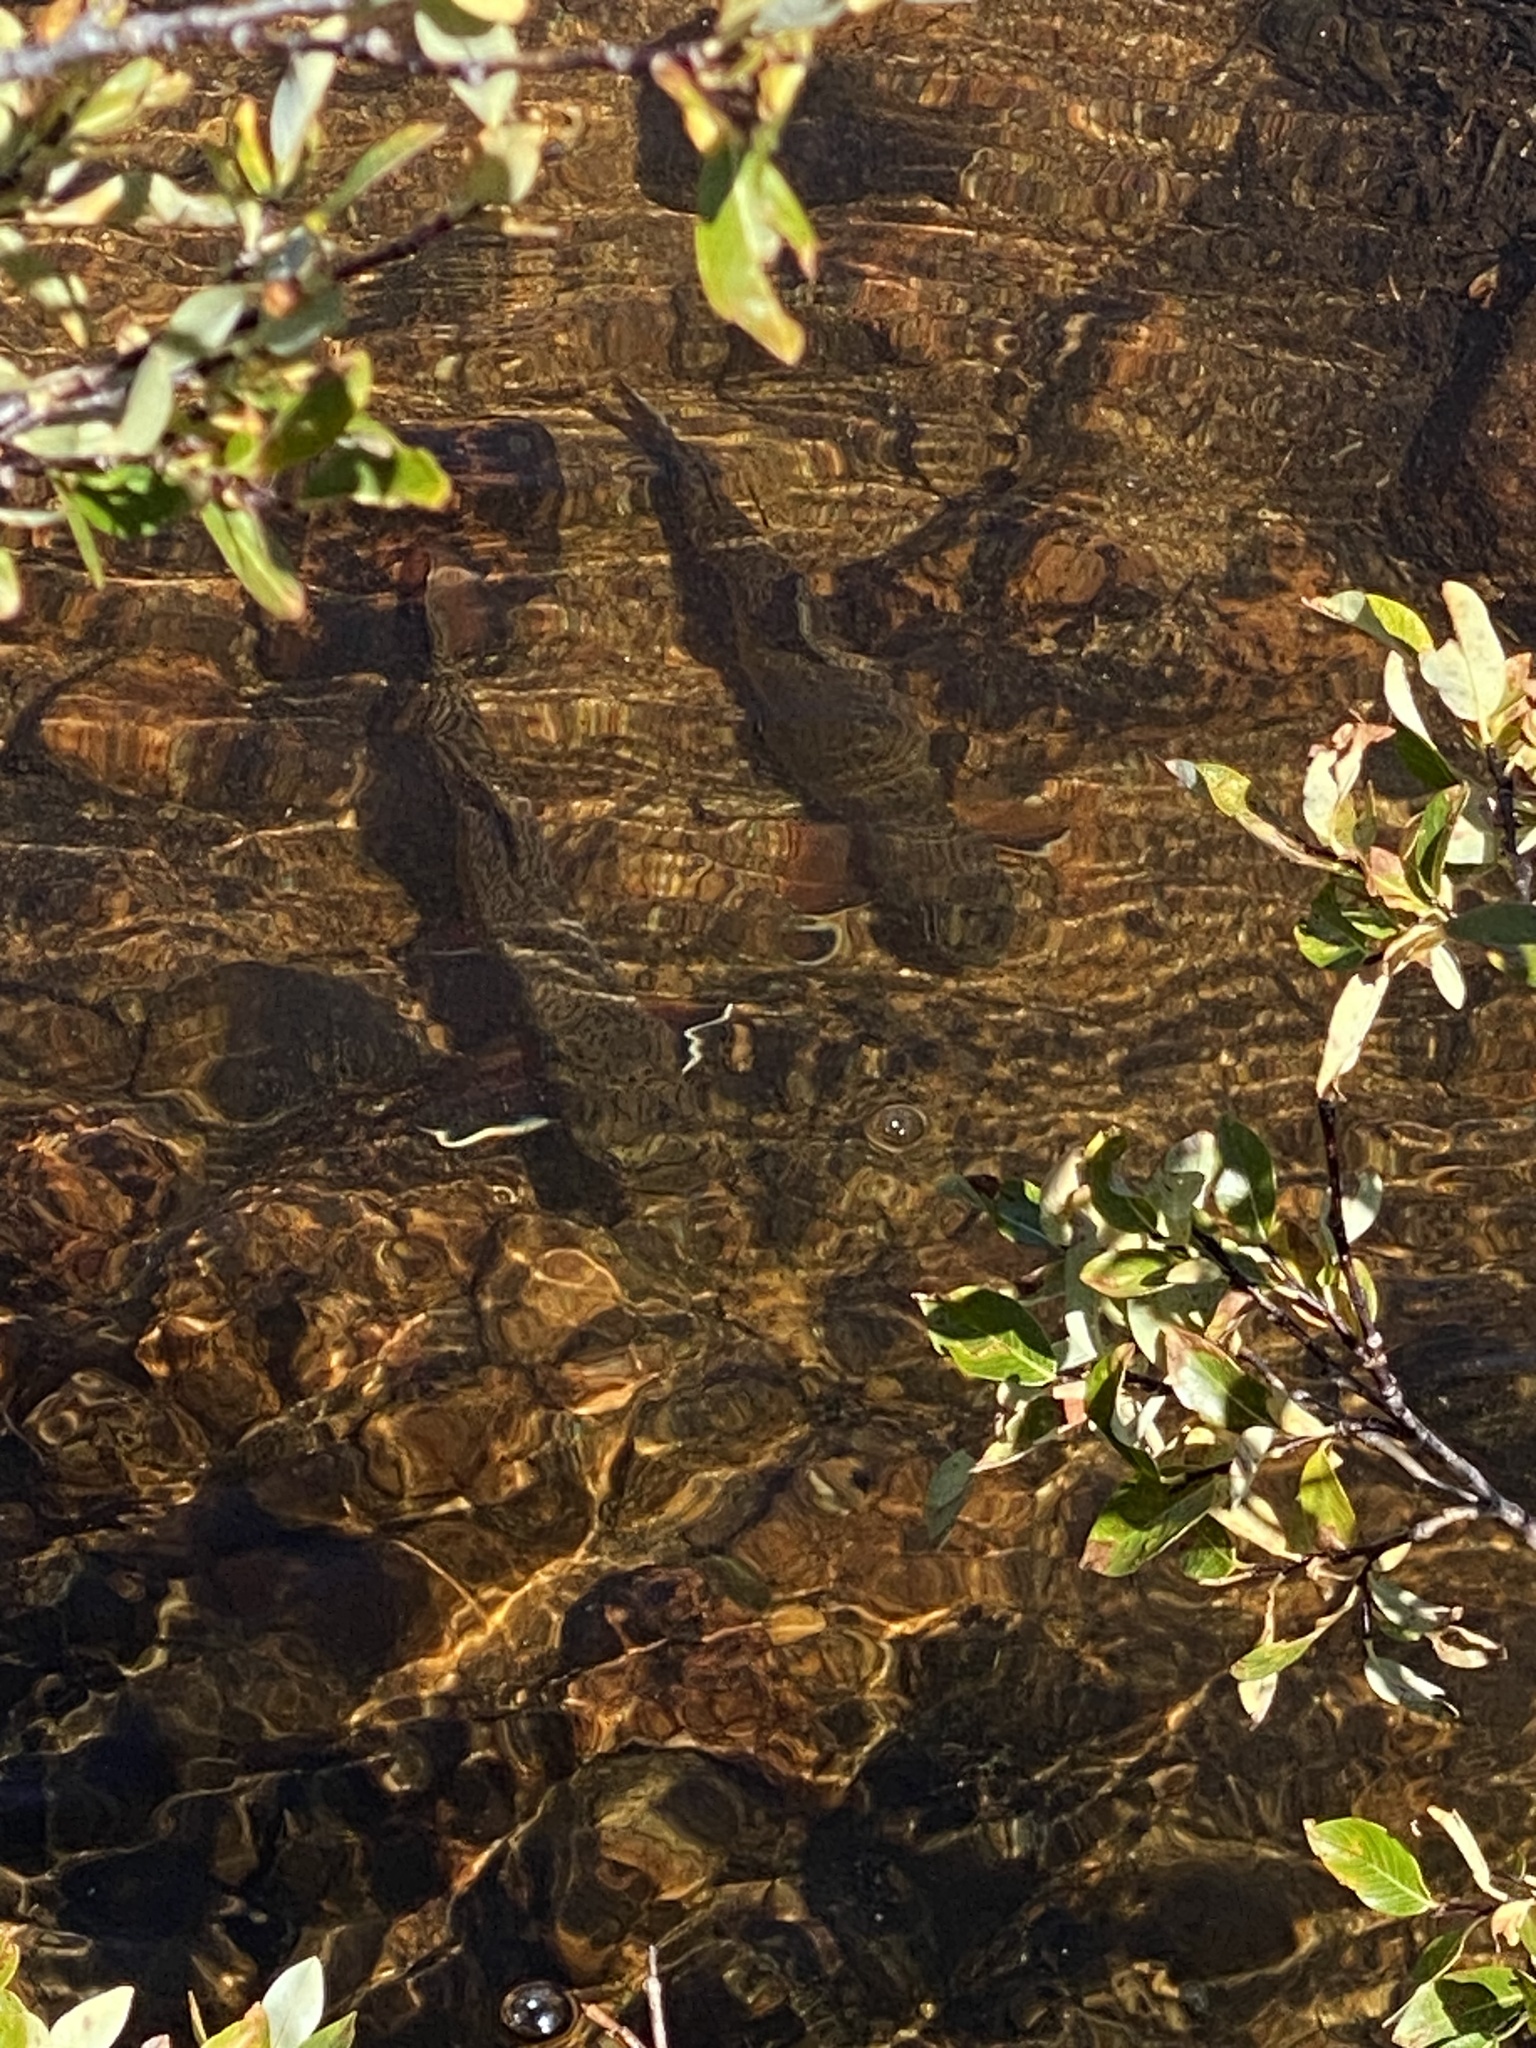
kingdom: Animalia
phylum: Chordata
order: Salmoniformes
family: Salmonidae
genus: Salvelinus
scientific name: Salvelinus fontinalis
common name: Brook trout
